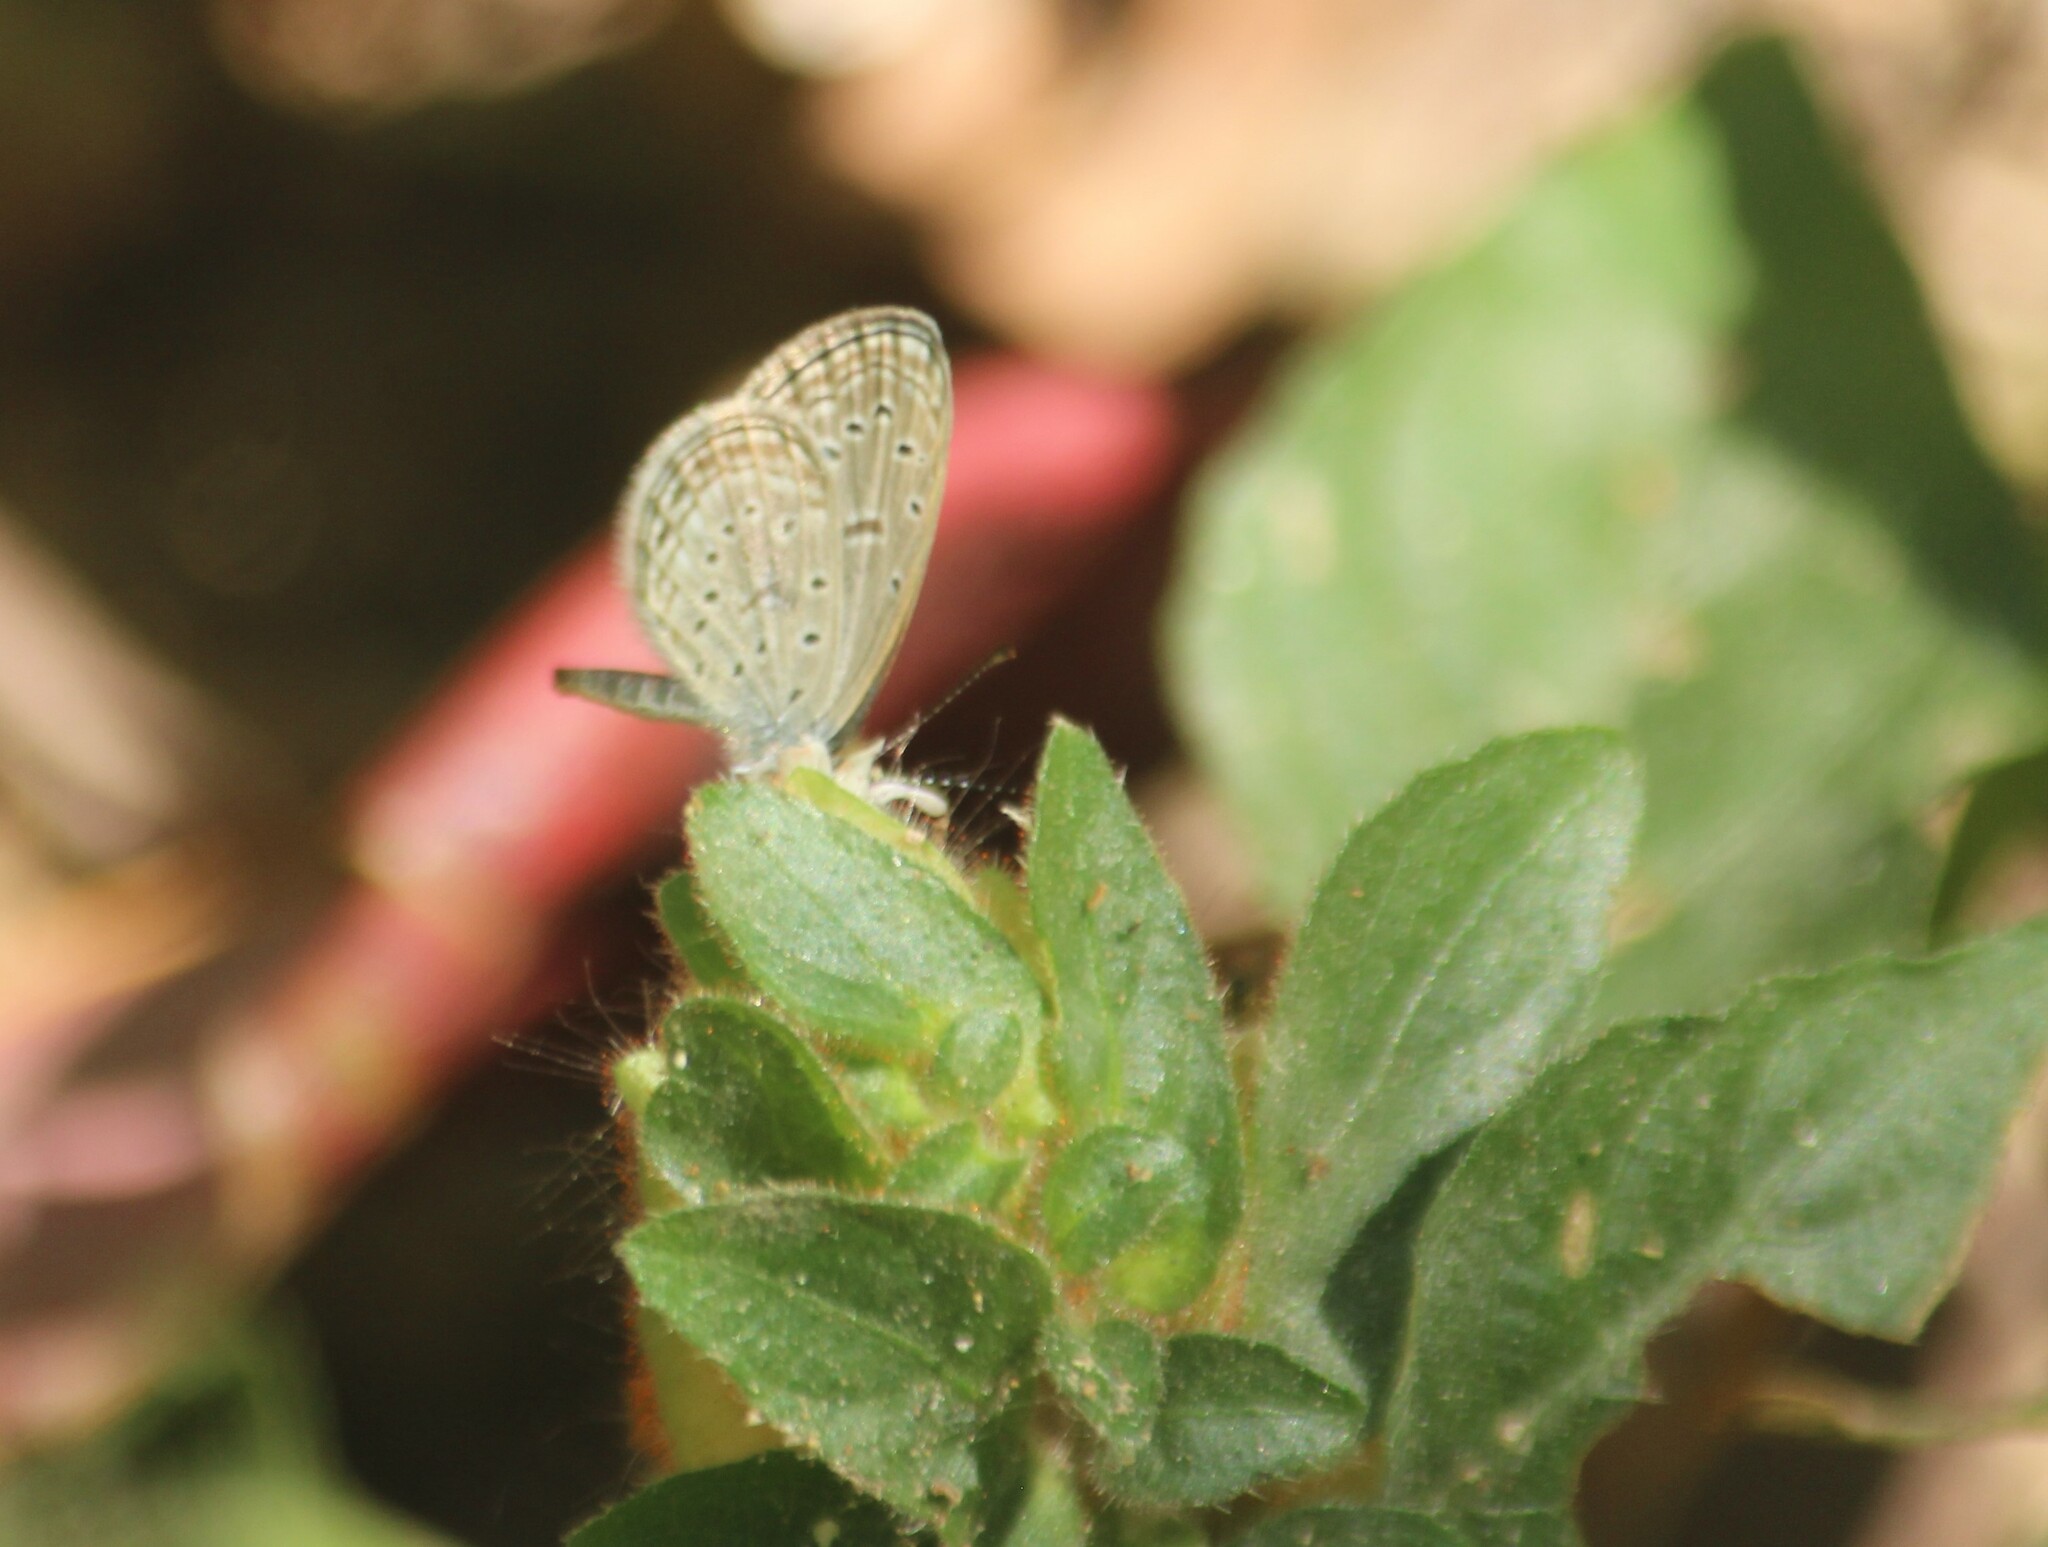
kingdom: Animalia
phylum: Arthropoda
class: Insecta
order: Lepidoptera
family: Lycaenidae
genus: Zizula
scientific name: Zizula hylax
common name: Gaika blue
